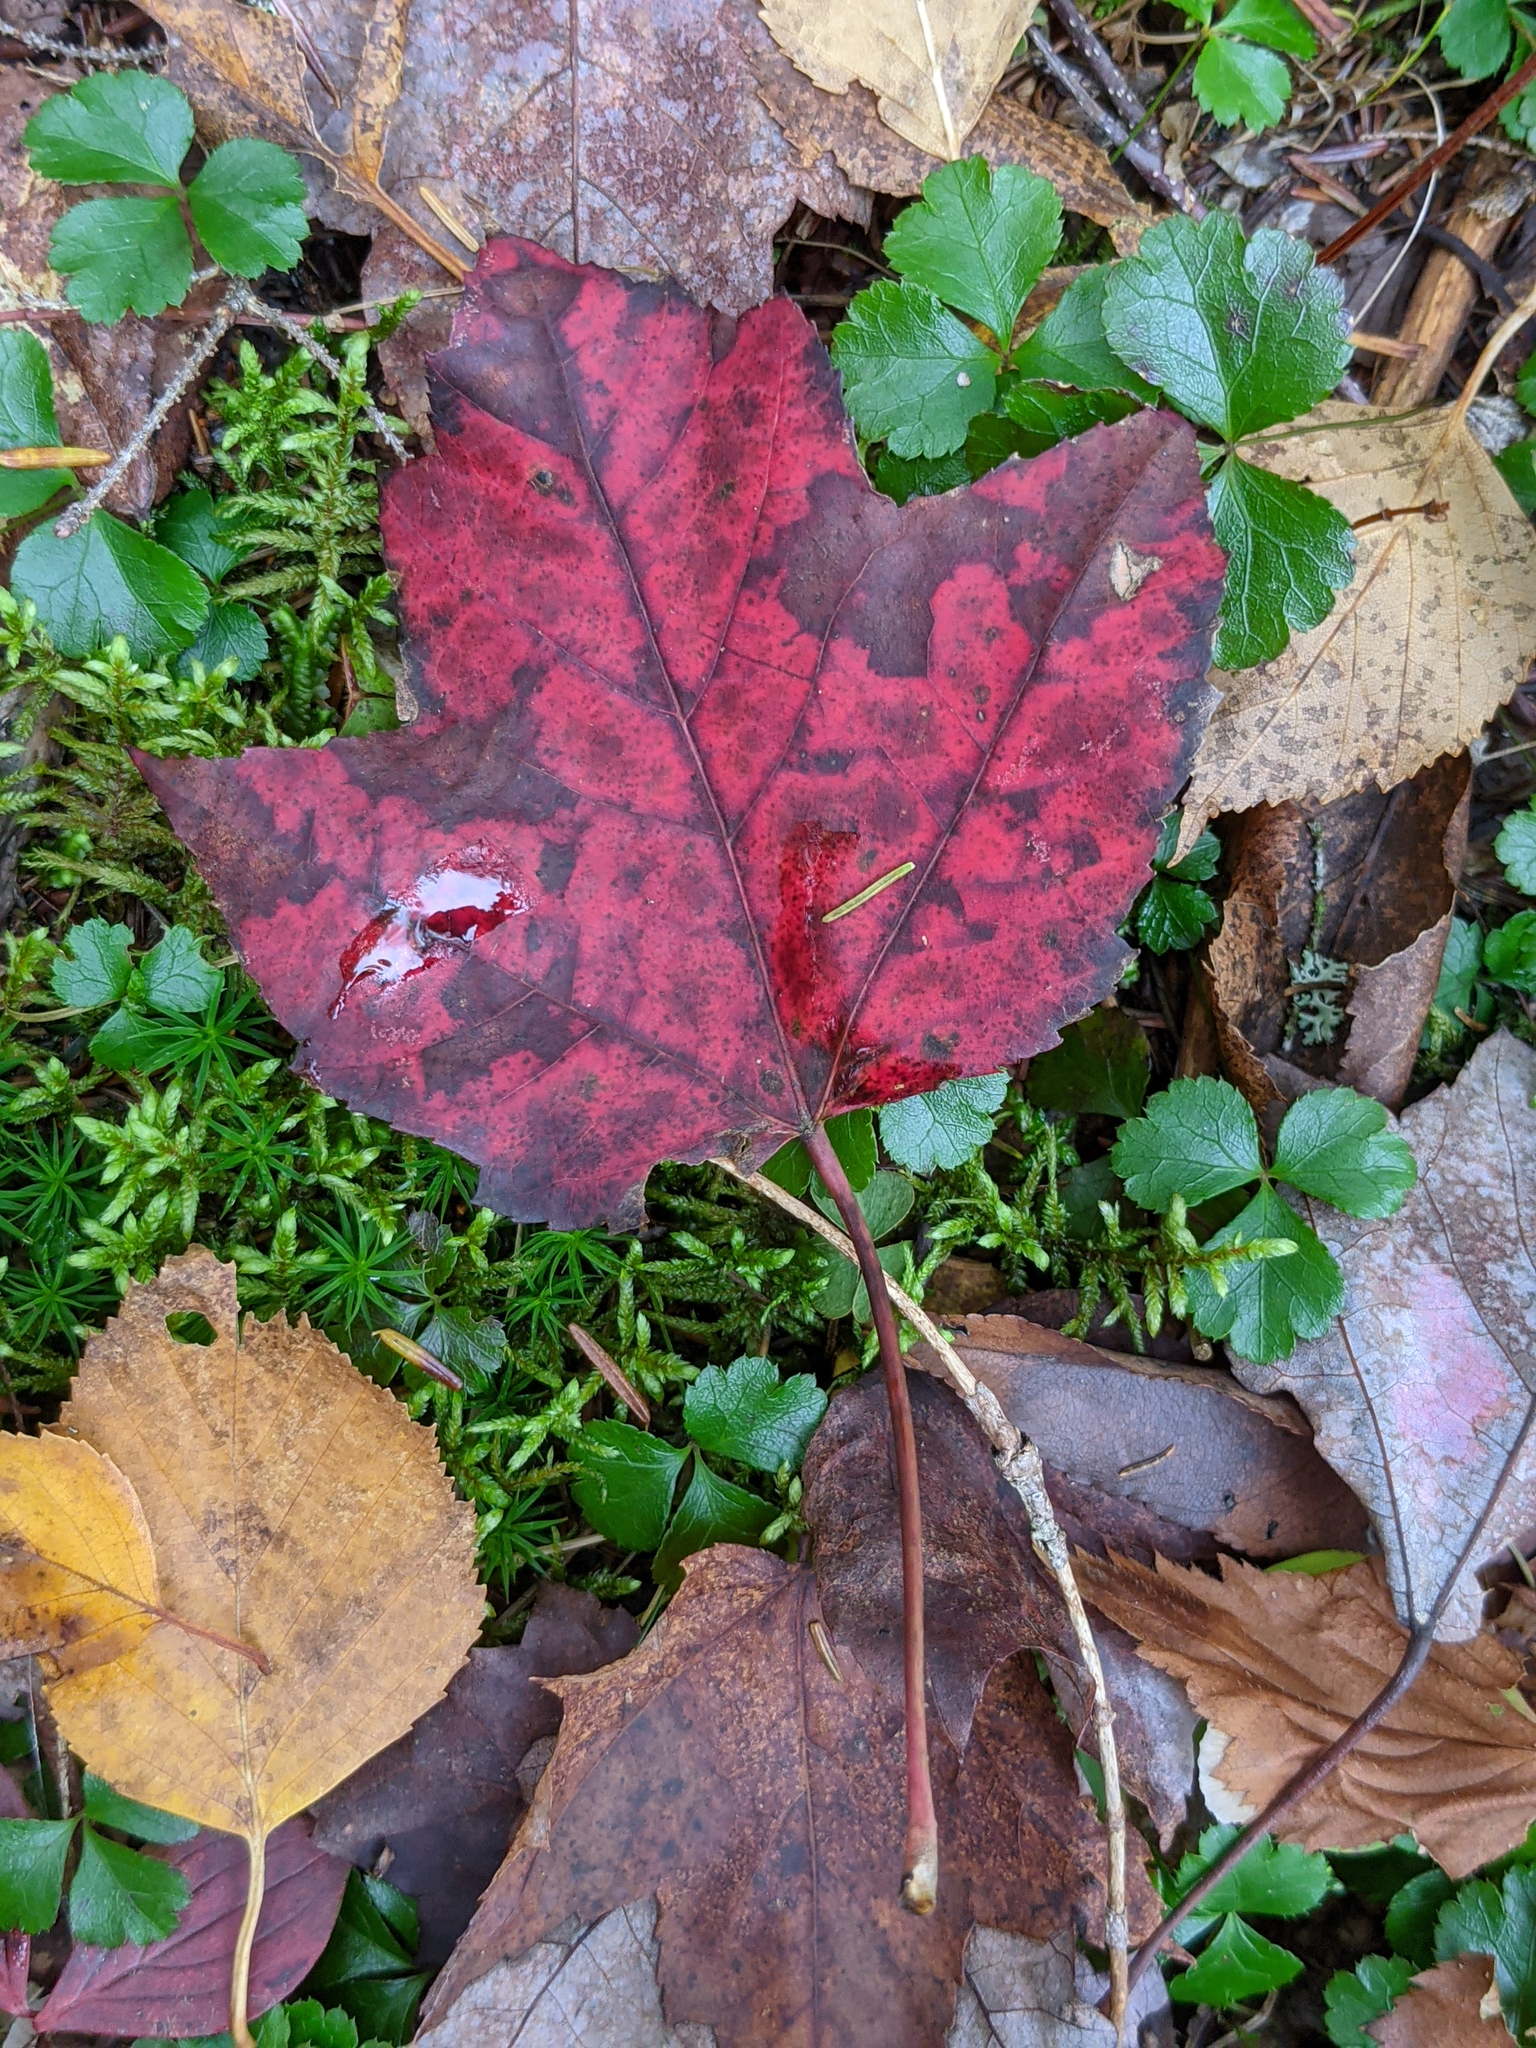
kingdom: Plantae
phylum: Tracheophyta
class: Magnoliopsida
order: Sapindales
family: Sapindaceae
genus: Acer
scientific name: Acer rubrum
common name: Red maple
